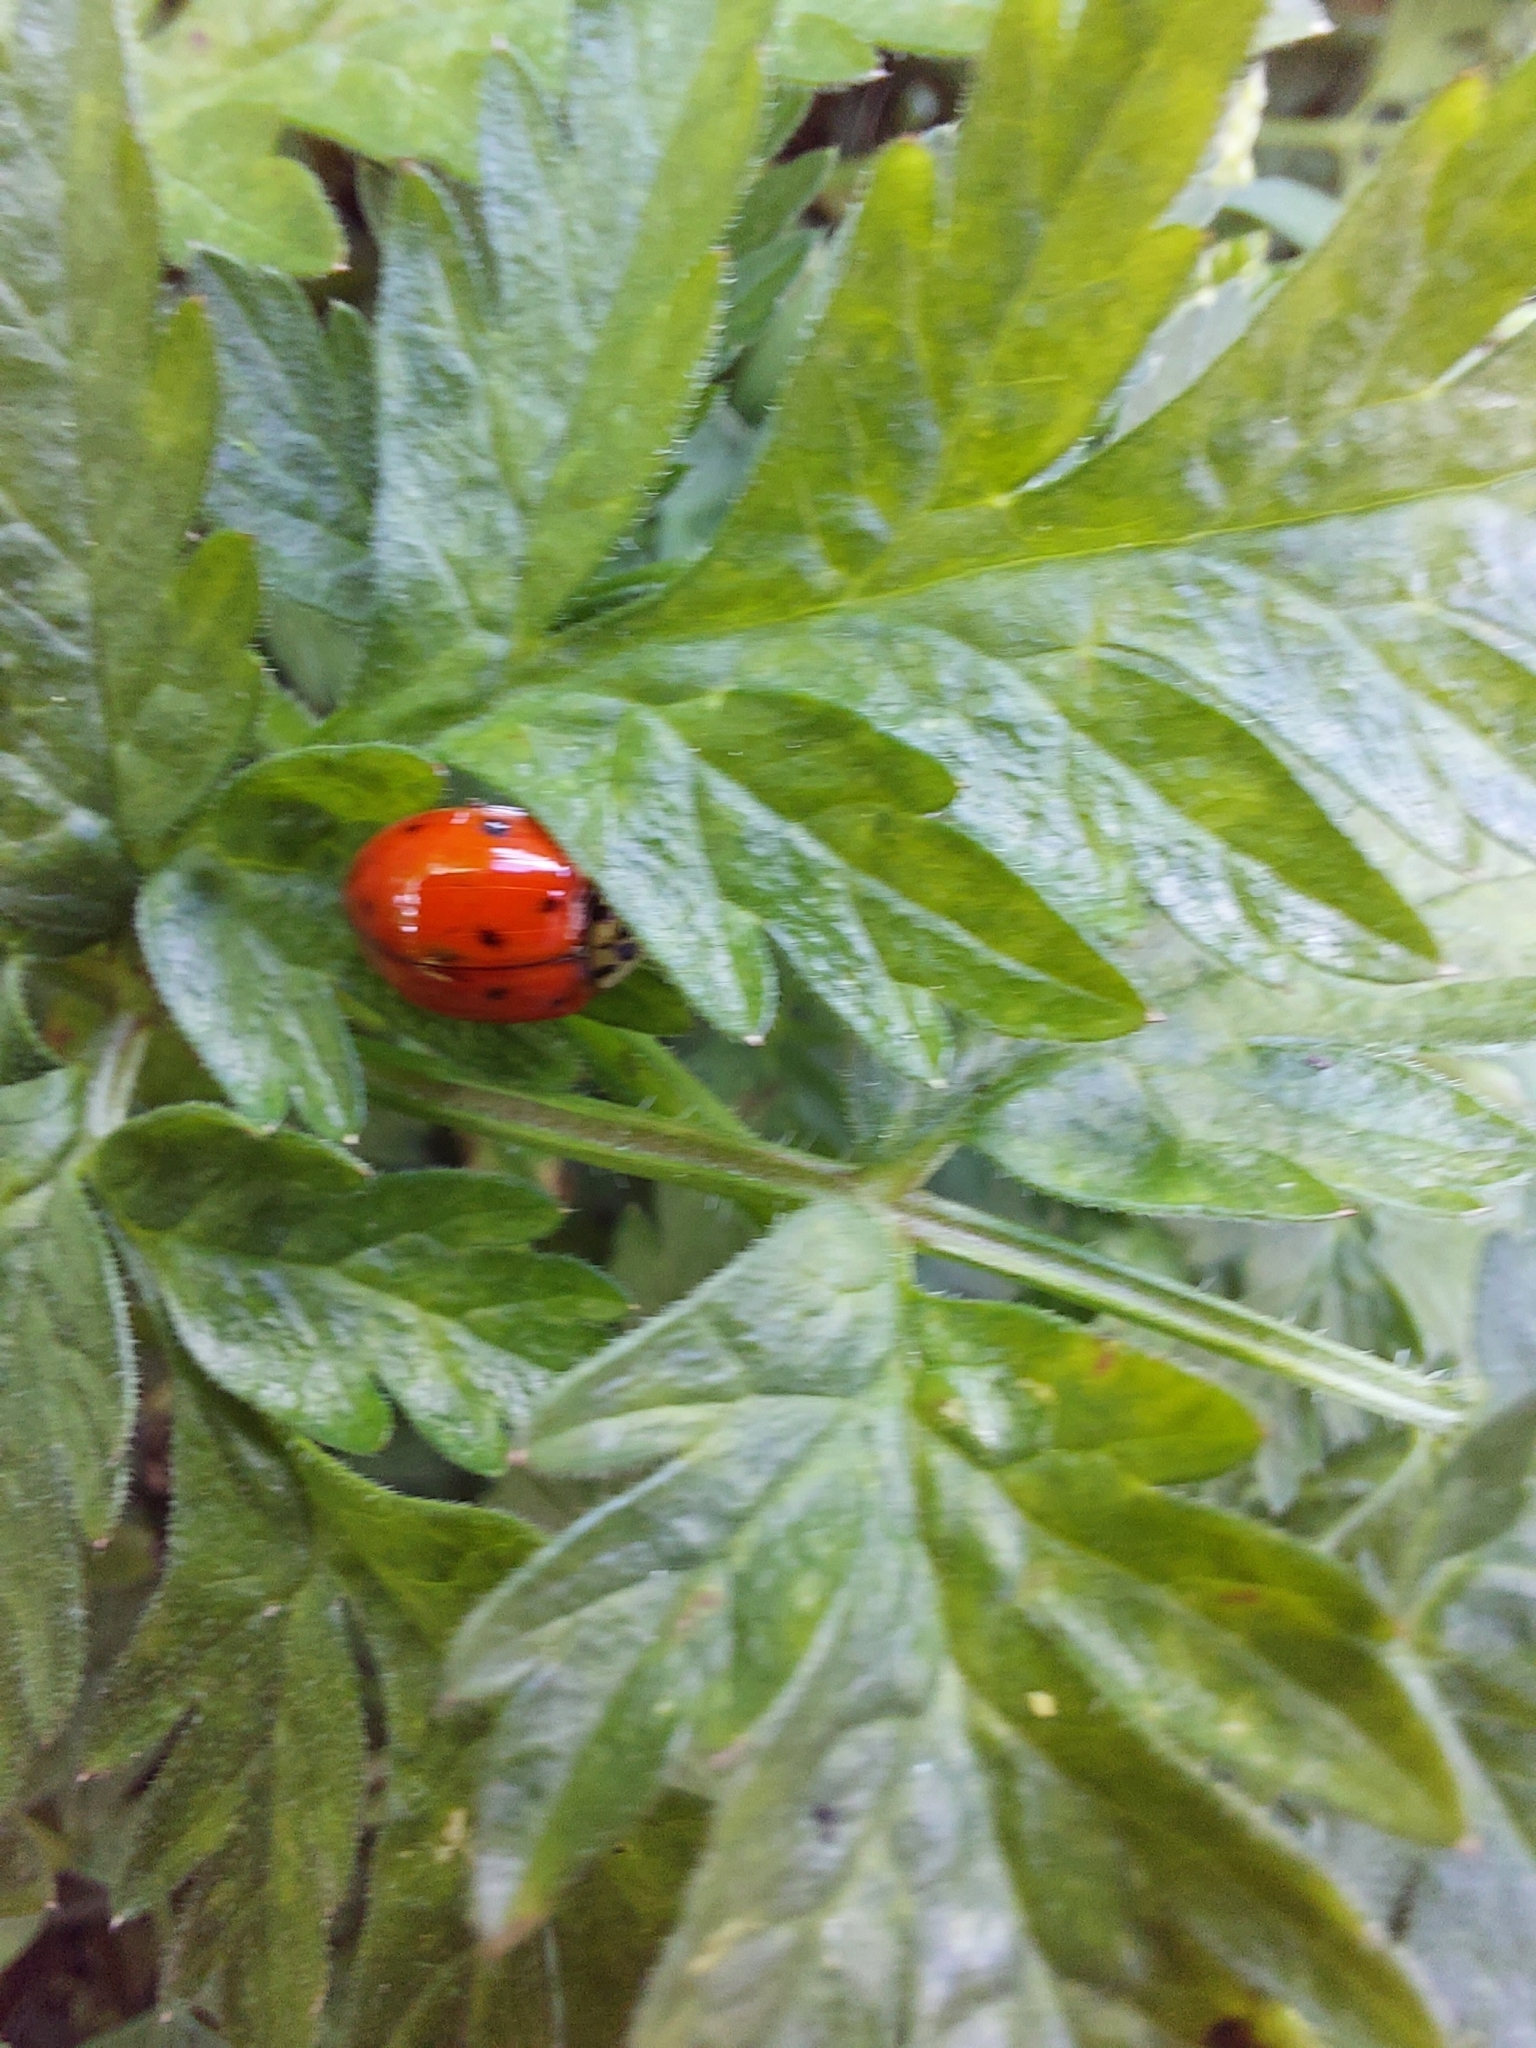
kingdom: Animalia
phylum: Arthropoda
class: Insecta
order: Coleoptera
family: Coccinellidae
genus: Harmonia
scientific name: Harmonia axyridis
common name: Harlequin ladybird
